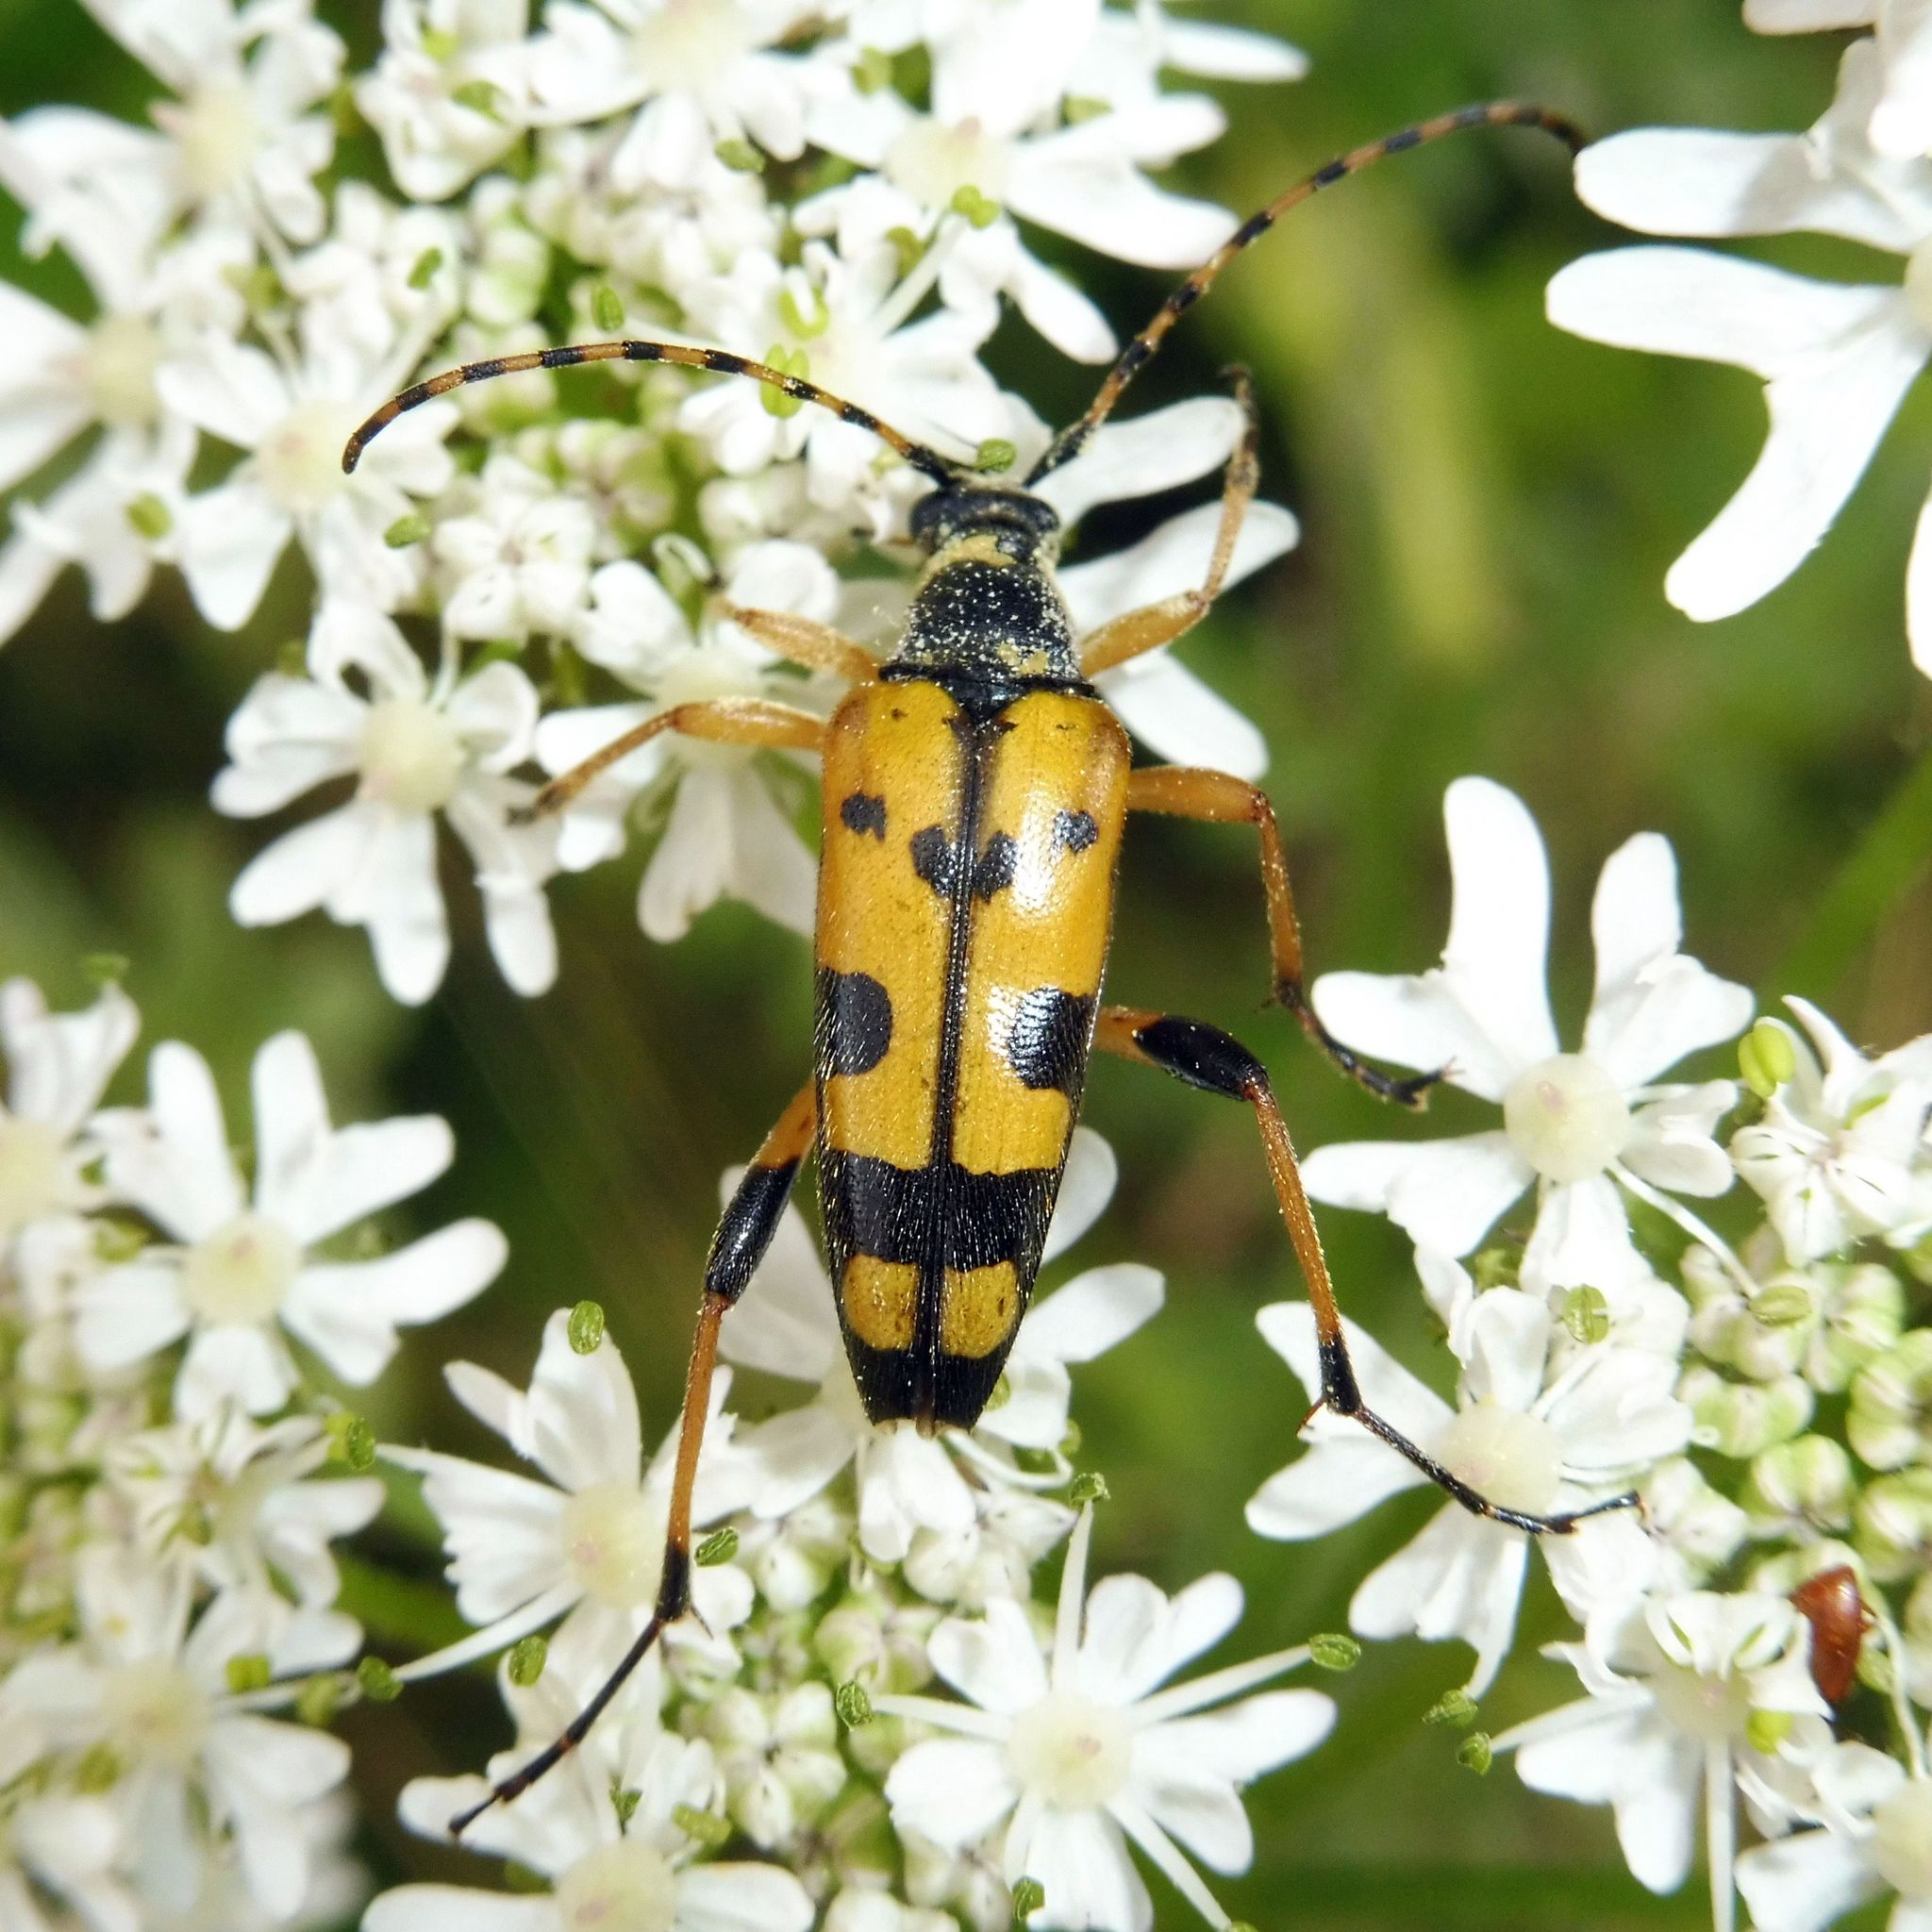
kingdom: Animalia
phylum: Arthropoda
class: Insecta
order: Coleoptera
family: Cerambycidae
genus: Rutpela
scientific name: Rutpela maculata
